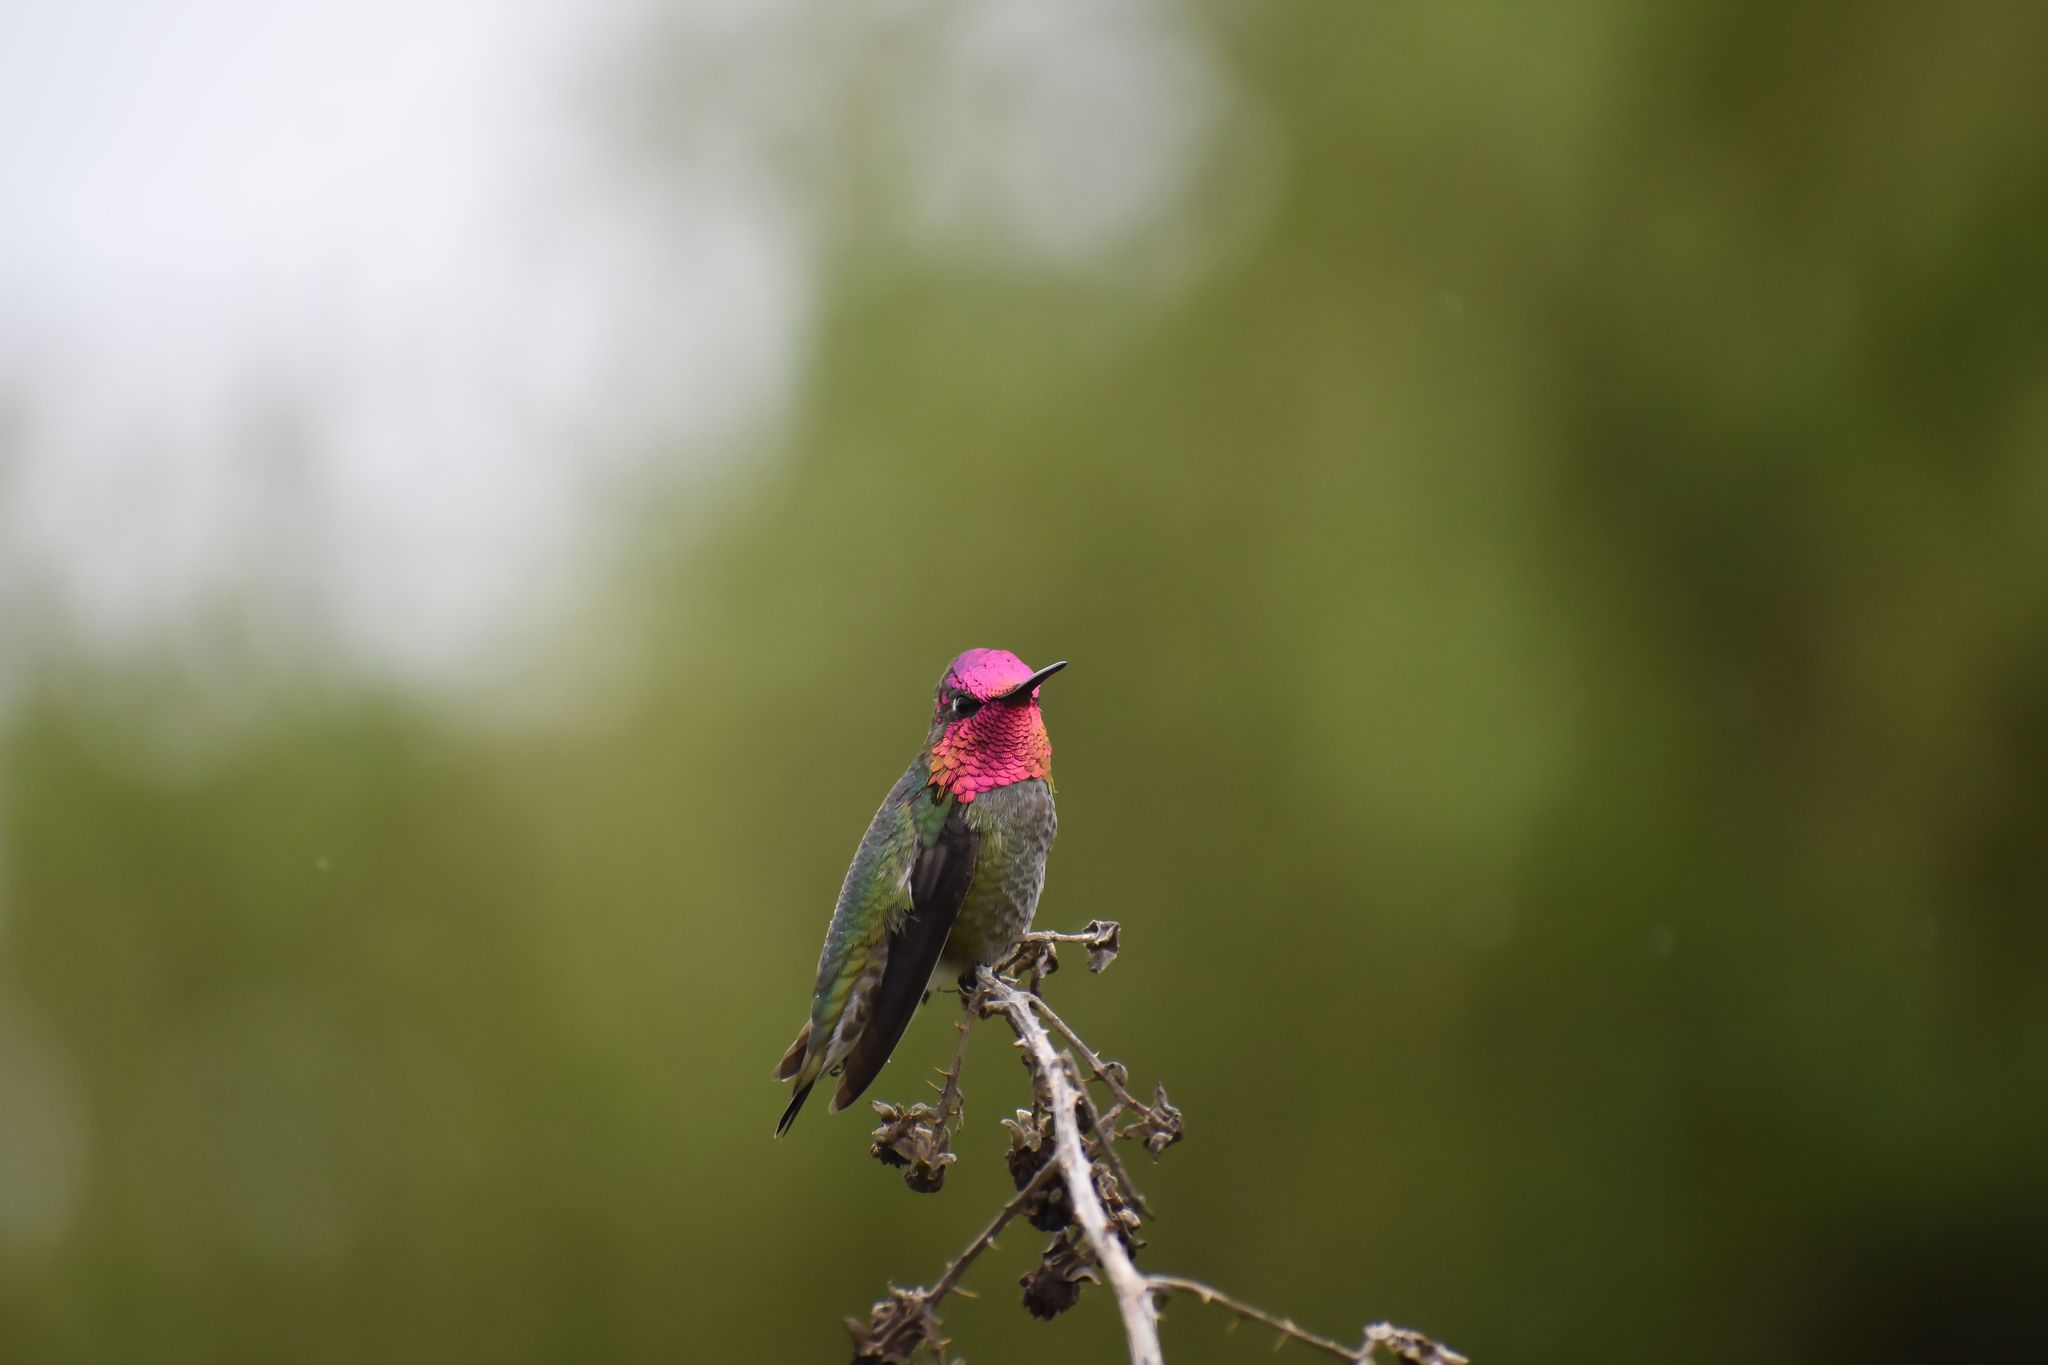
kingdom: Animalia
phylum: Chordata
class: Aves
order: Apodiformes
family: Trochilidae
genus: Calypte
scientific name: Calypte anna
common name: Anna's hummingbird
